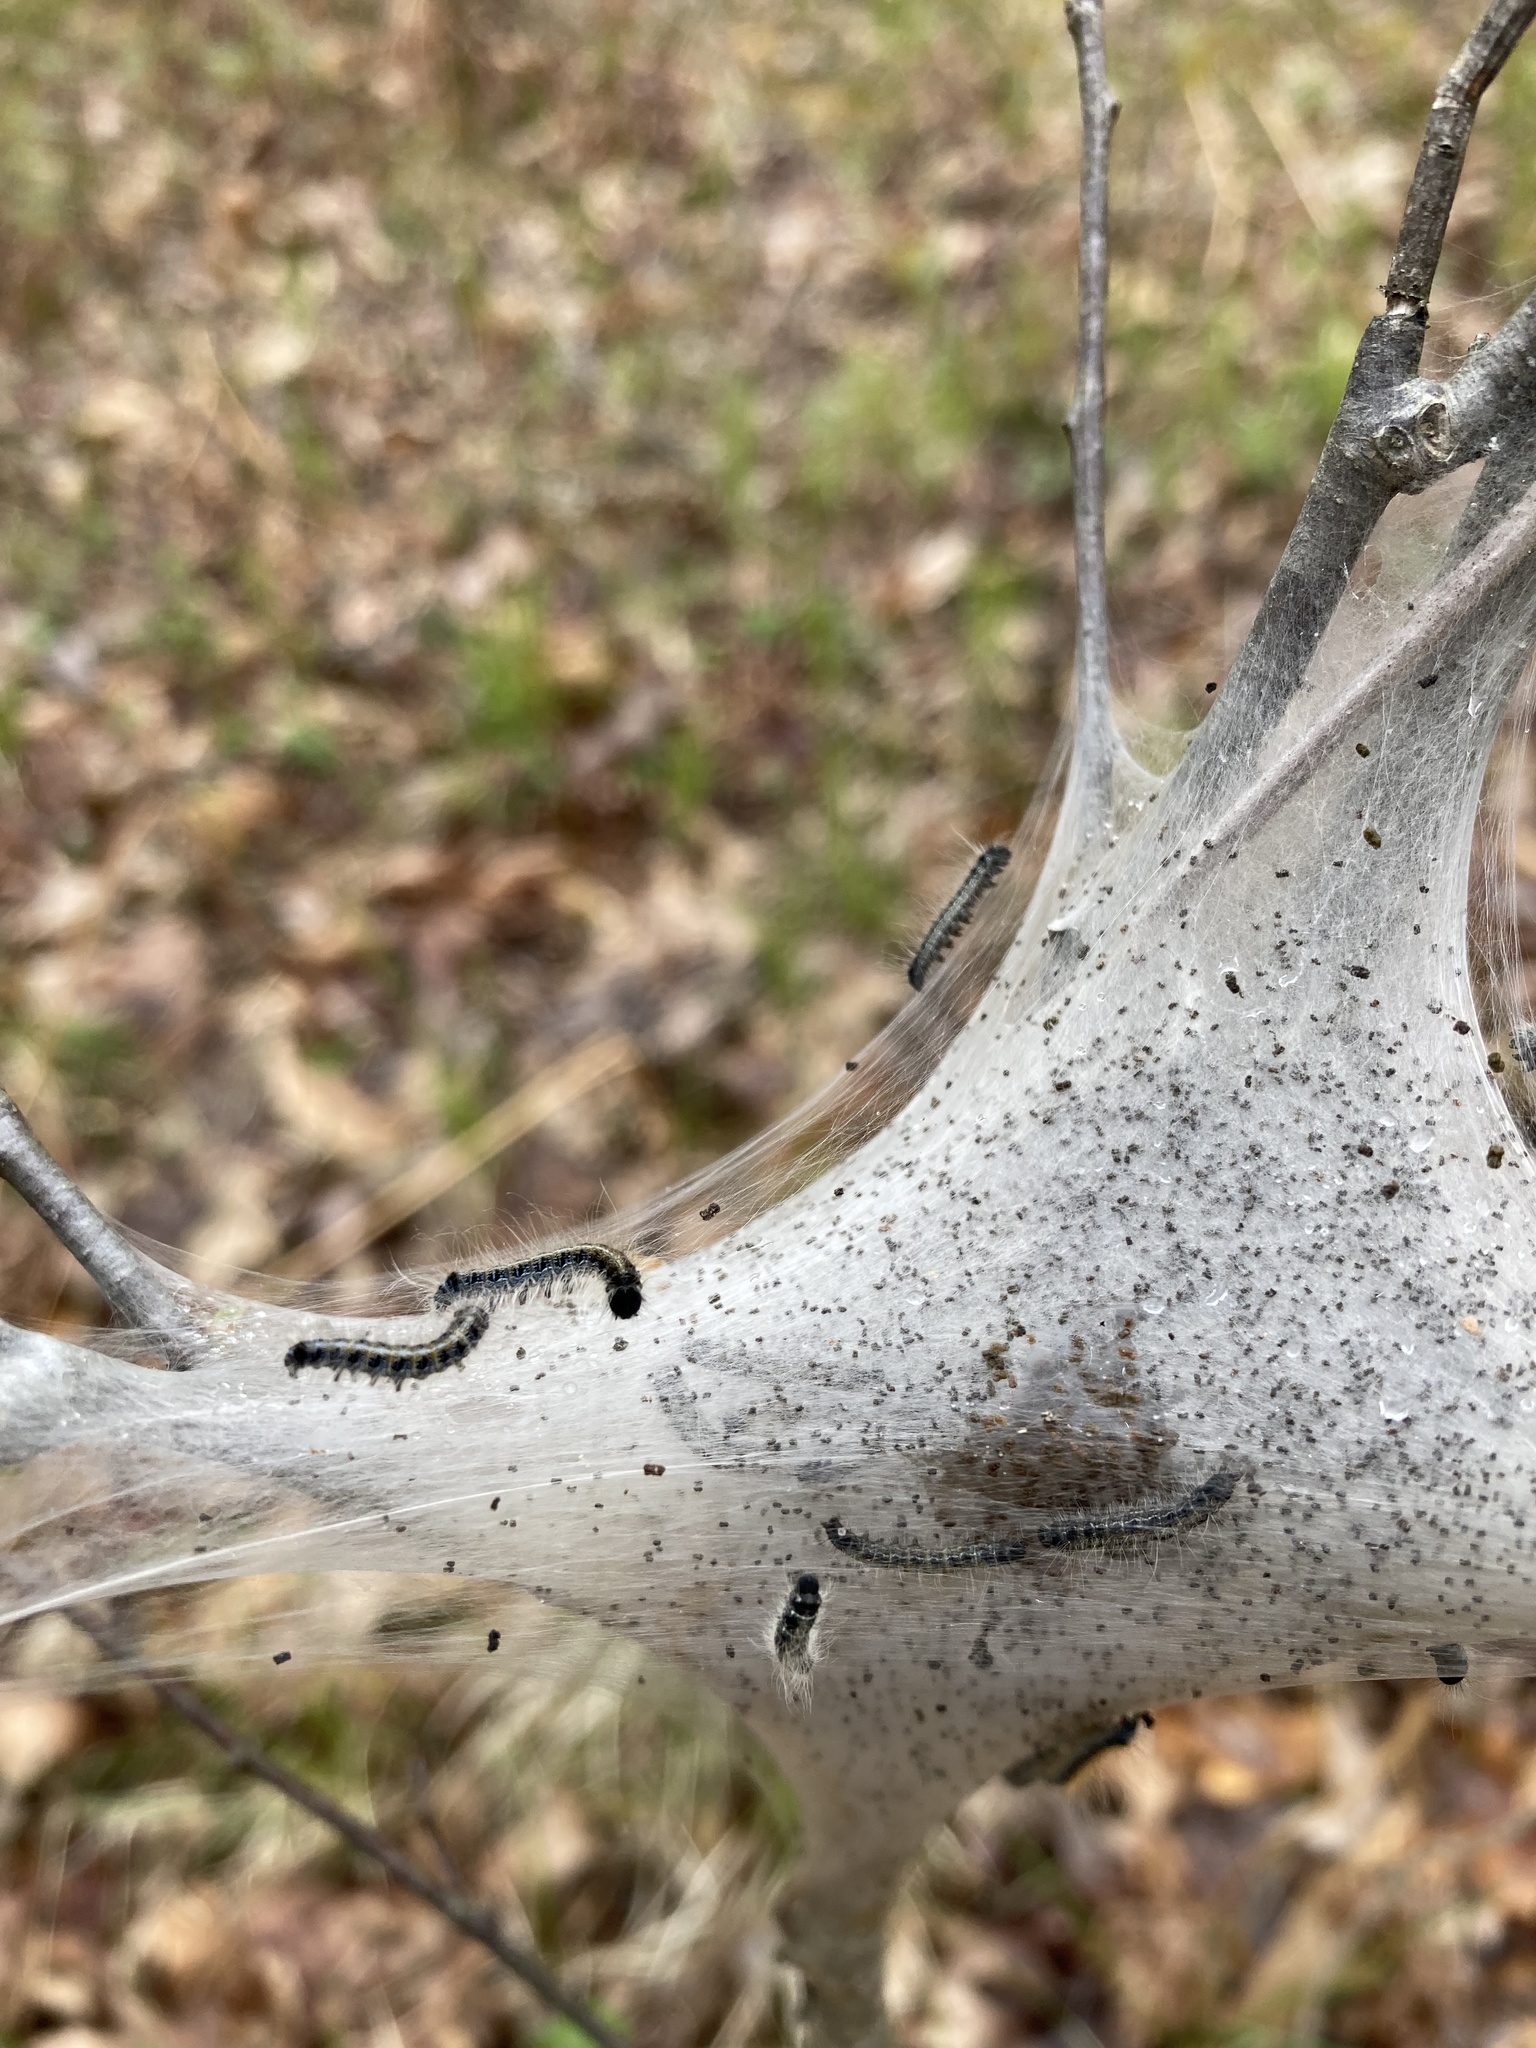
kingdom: Animalia
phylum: Arthropoda
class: Insecta
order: Lepidoptera
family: Lasiocampidae
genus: Malacosoma
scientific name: Malacosoma americana
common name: Eastern tent caterpillar moth
